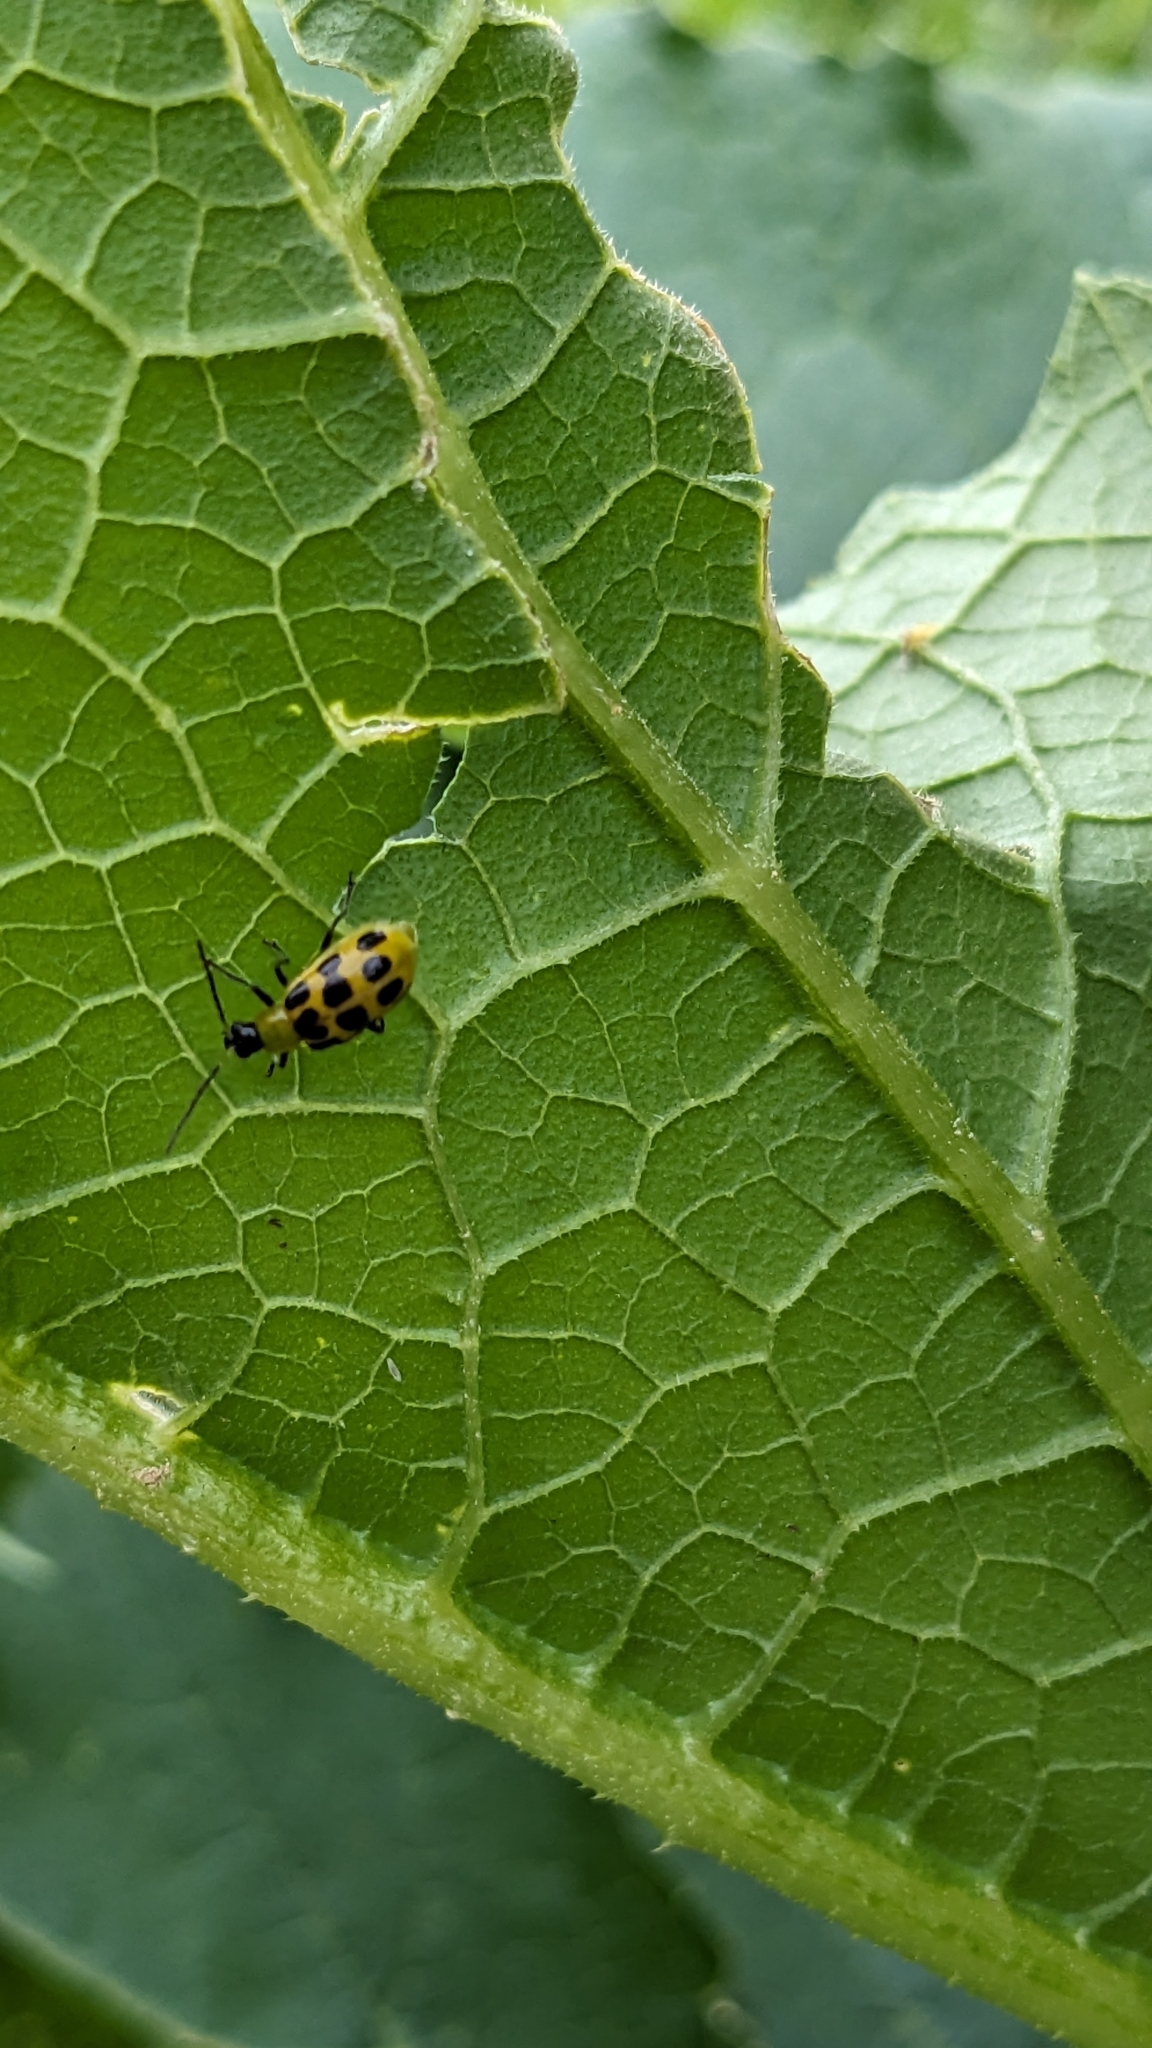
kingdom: Animalia
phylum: Arthropoda
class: Insecta
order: Coleoptera
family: Chrysomelidae
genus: Diabrotica
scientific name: Diabrotica undecimpunctata
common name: Spotted cucumber beetle
